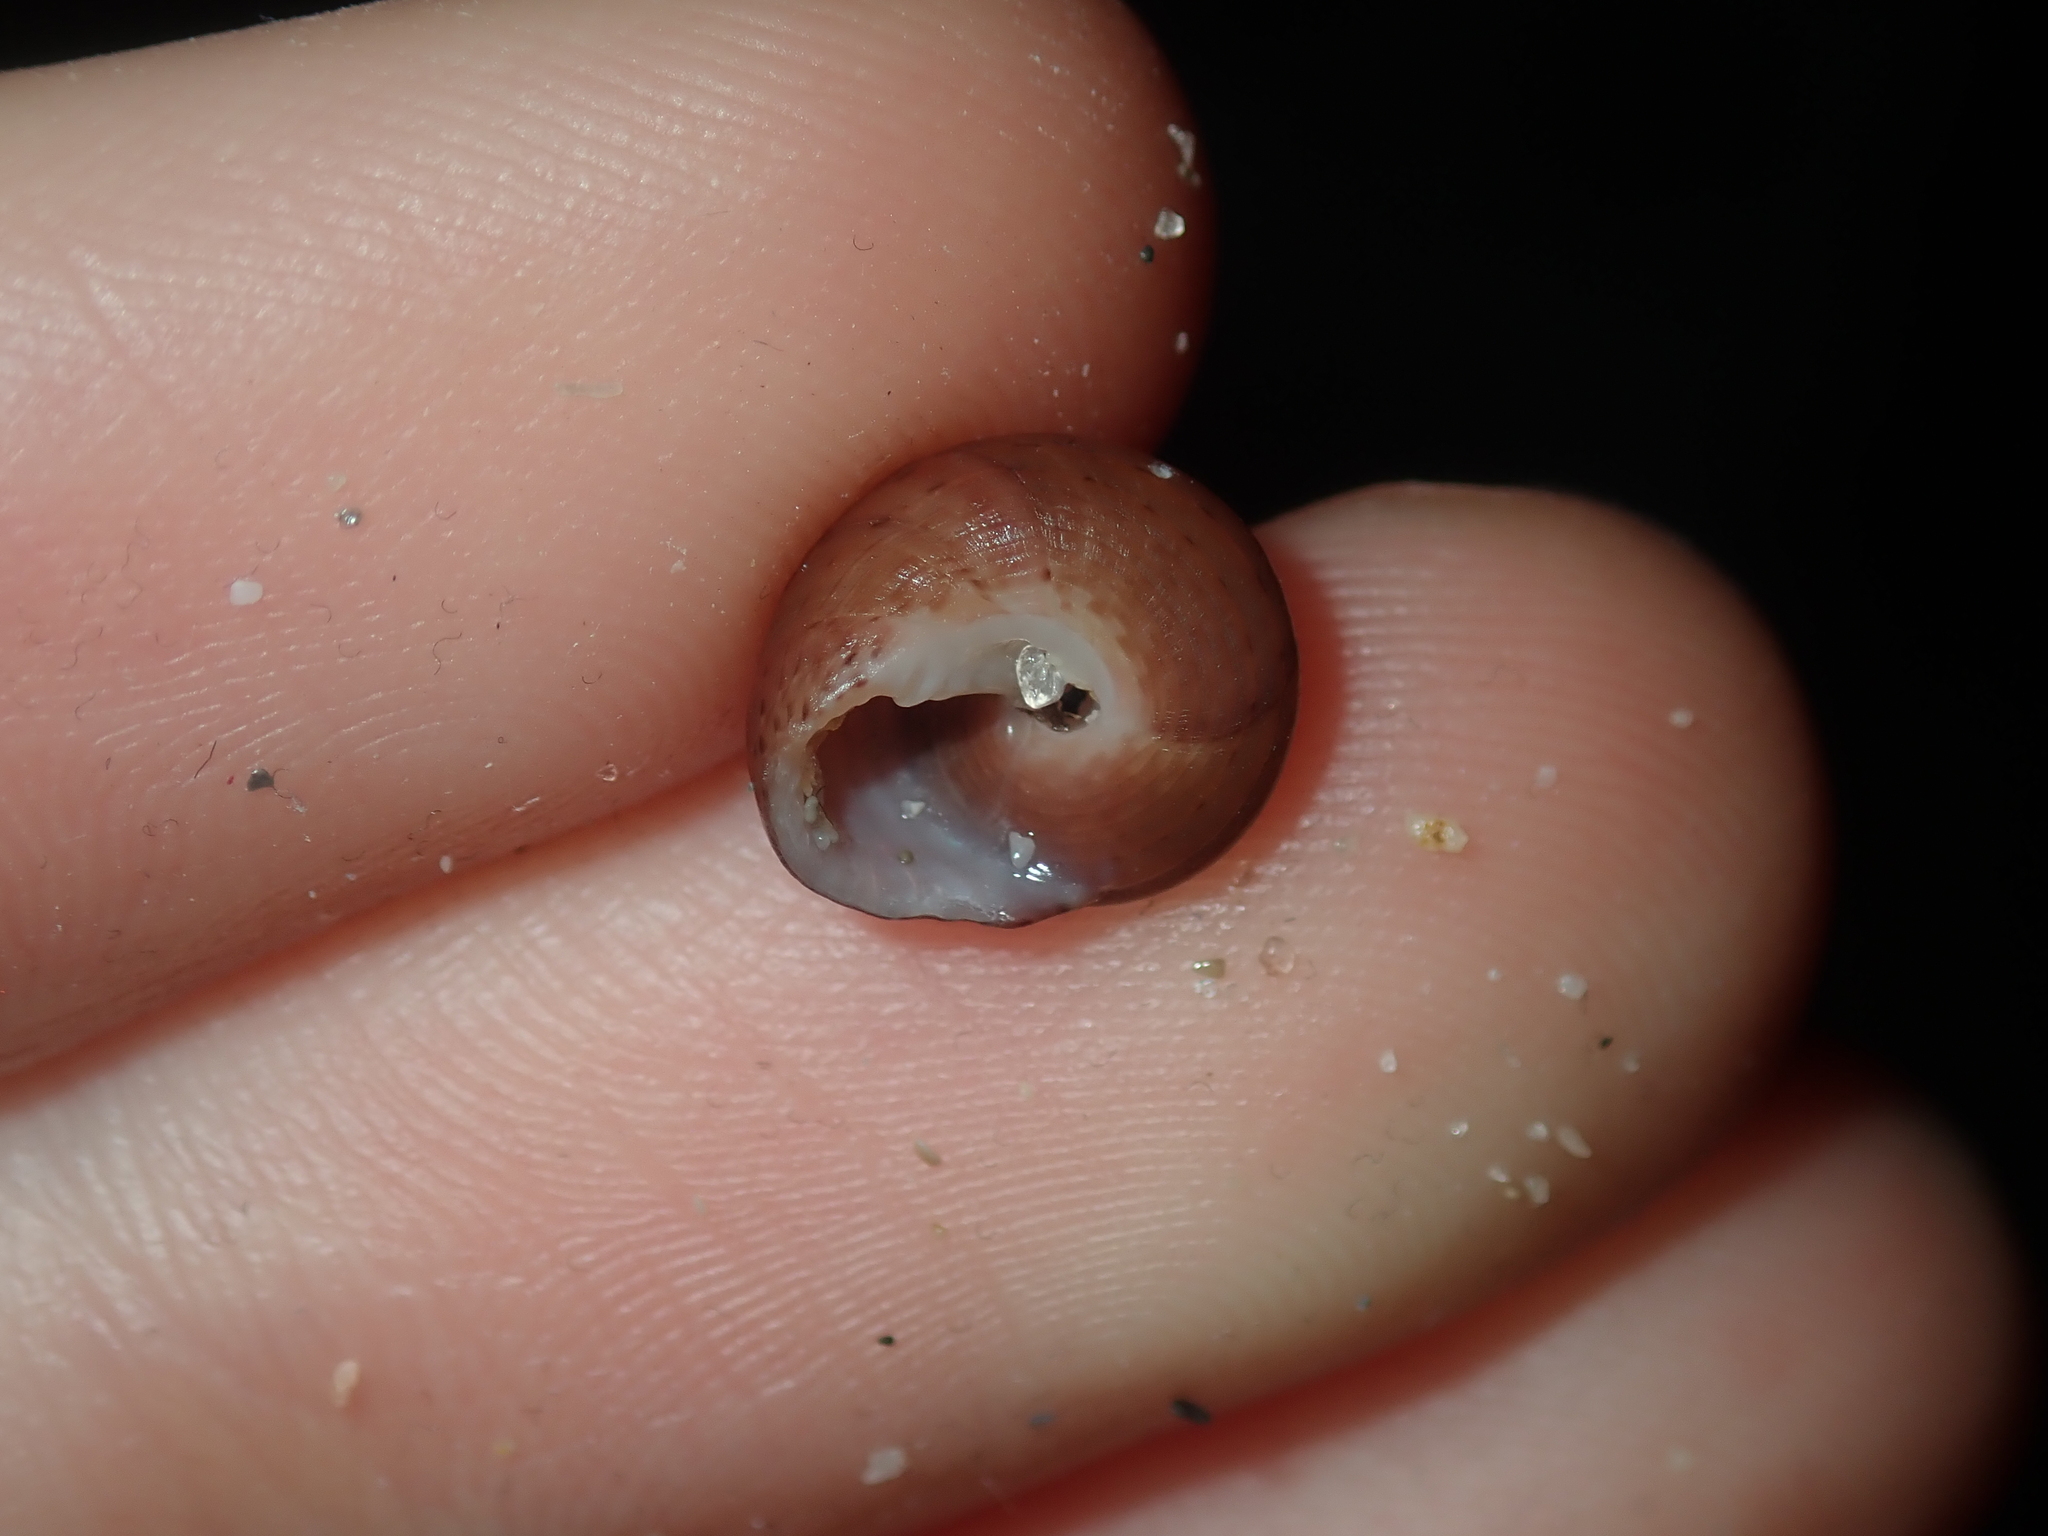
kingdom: Animalia
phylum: Mollusca
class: Gastropoda
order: Trochida
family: Trochidae
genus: Clanculus
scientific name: Clanculus consobrinus
